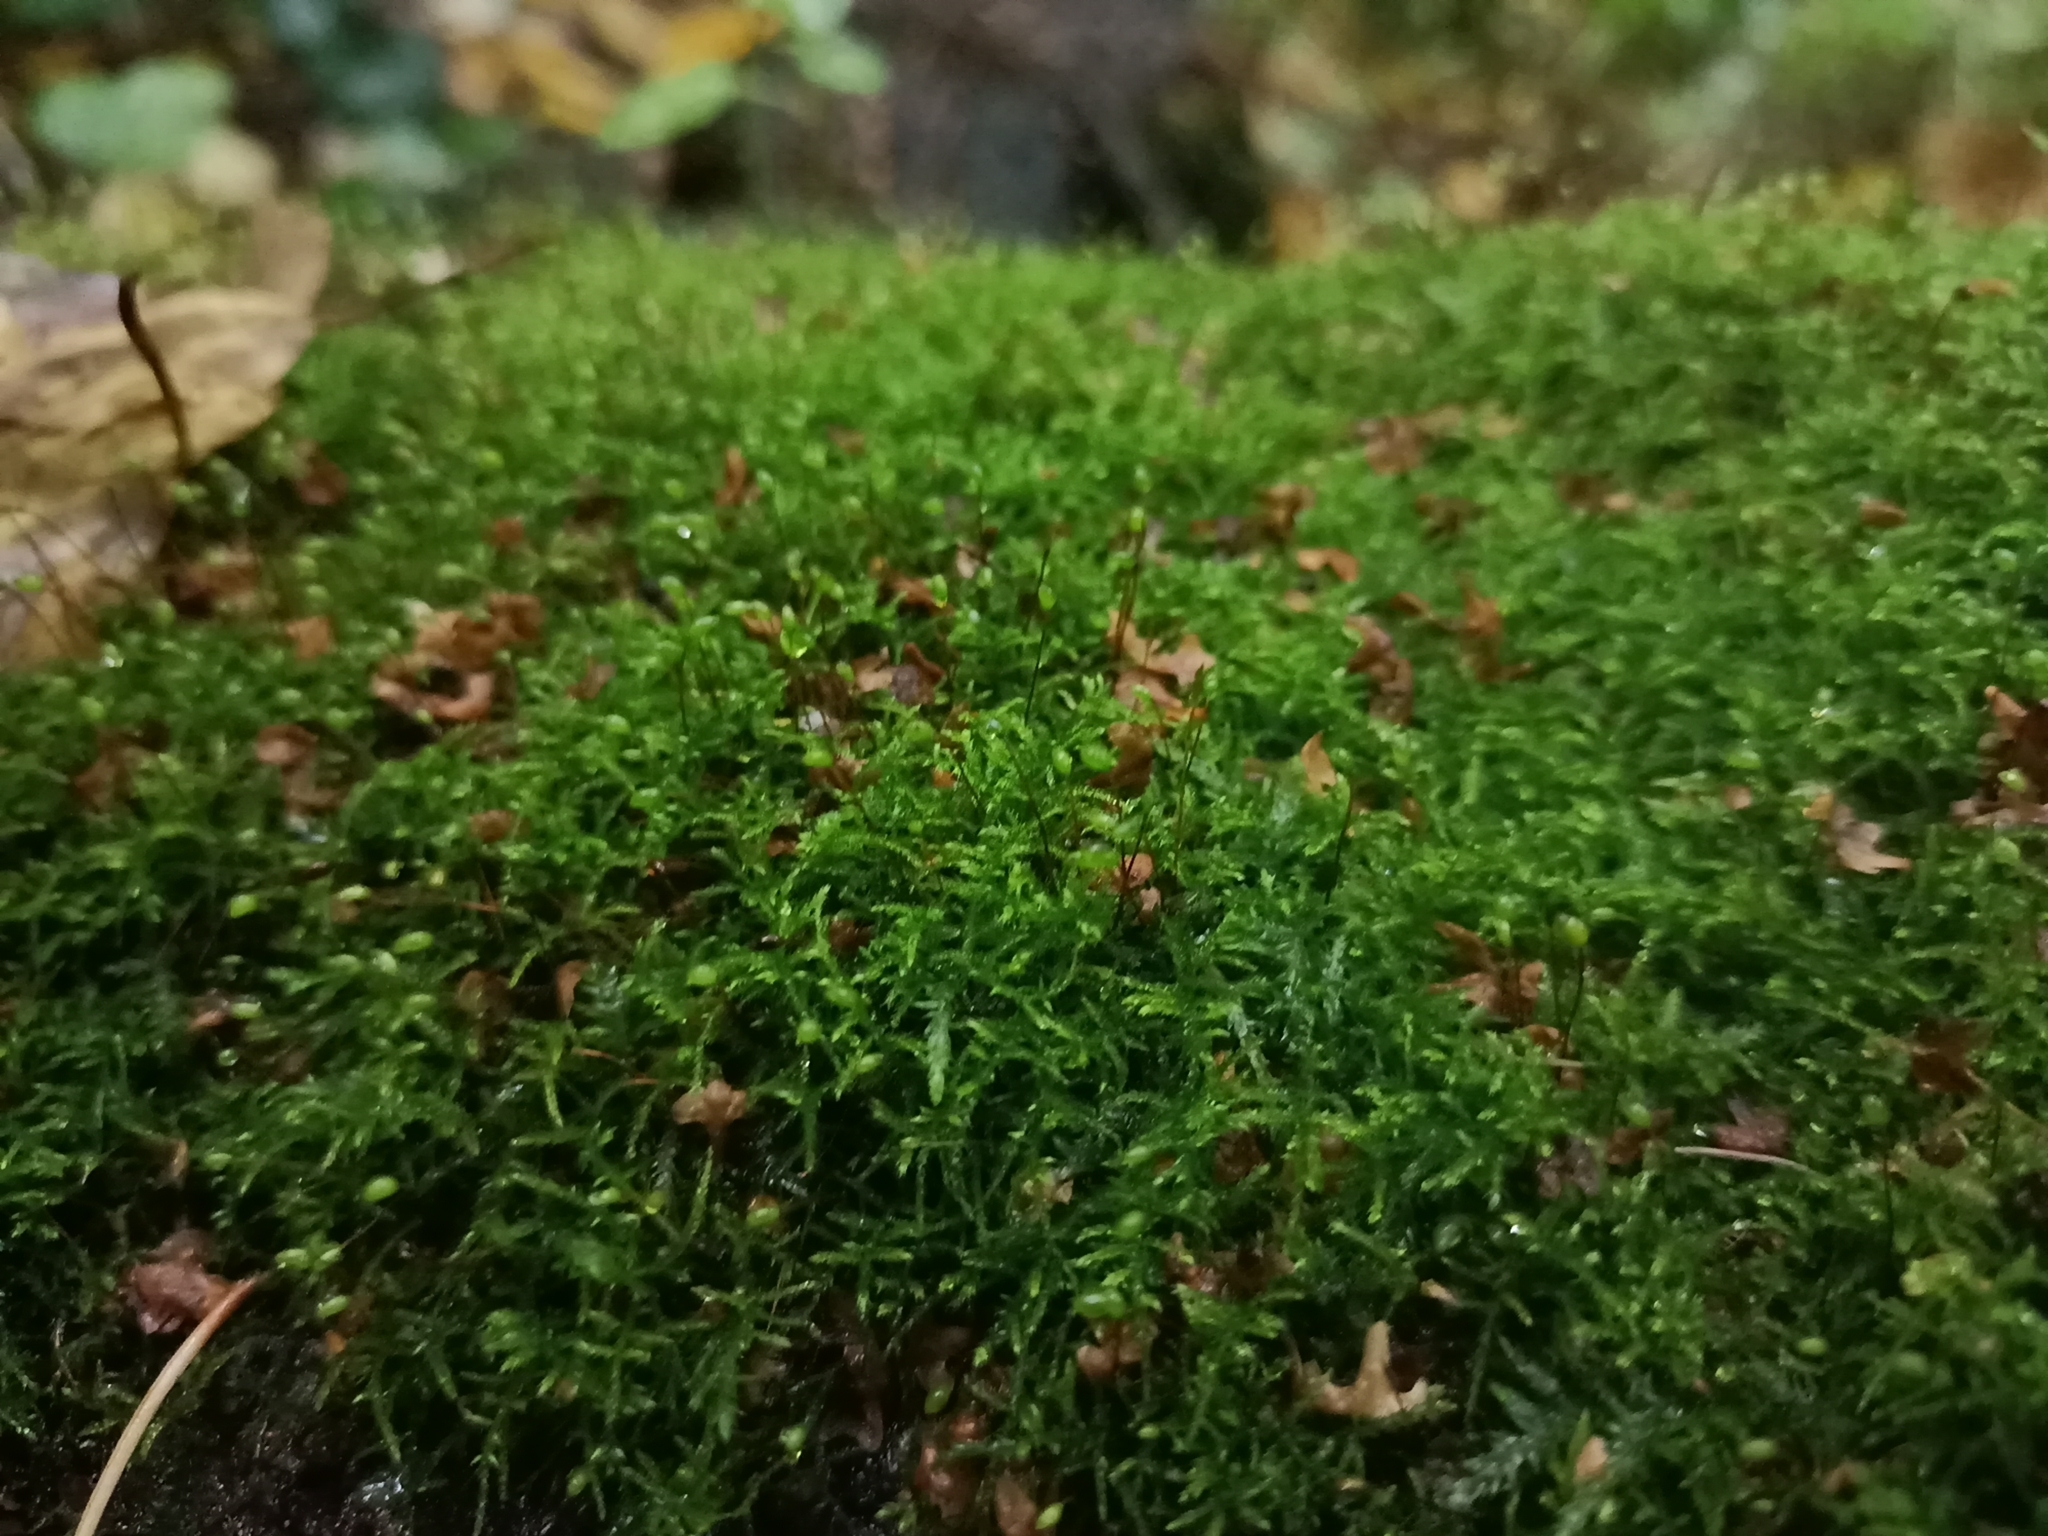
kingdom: Plantae
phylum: Bryophyta
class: Bryopsida
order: Hypnales
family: Brachytheciaceae
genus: Sciuro-hypnum
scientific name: Sciuro-hypnum reflexum
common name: Reflexed feather-moss
